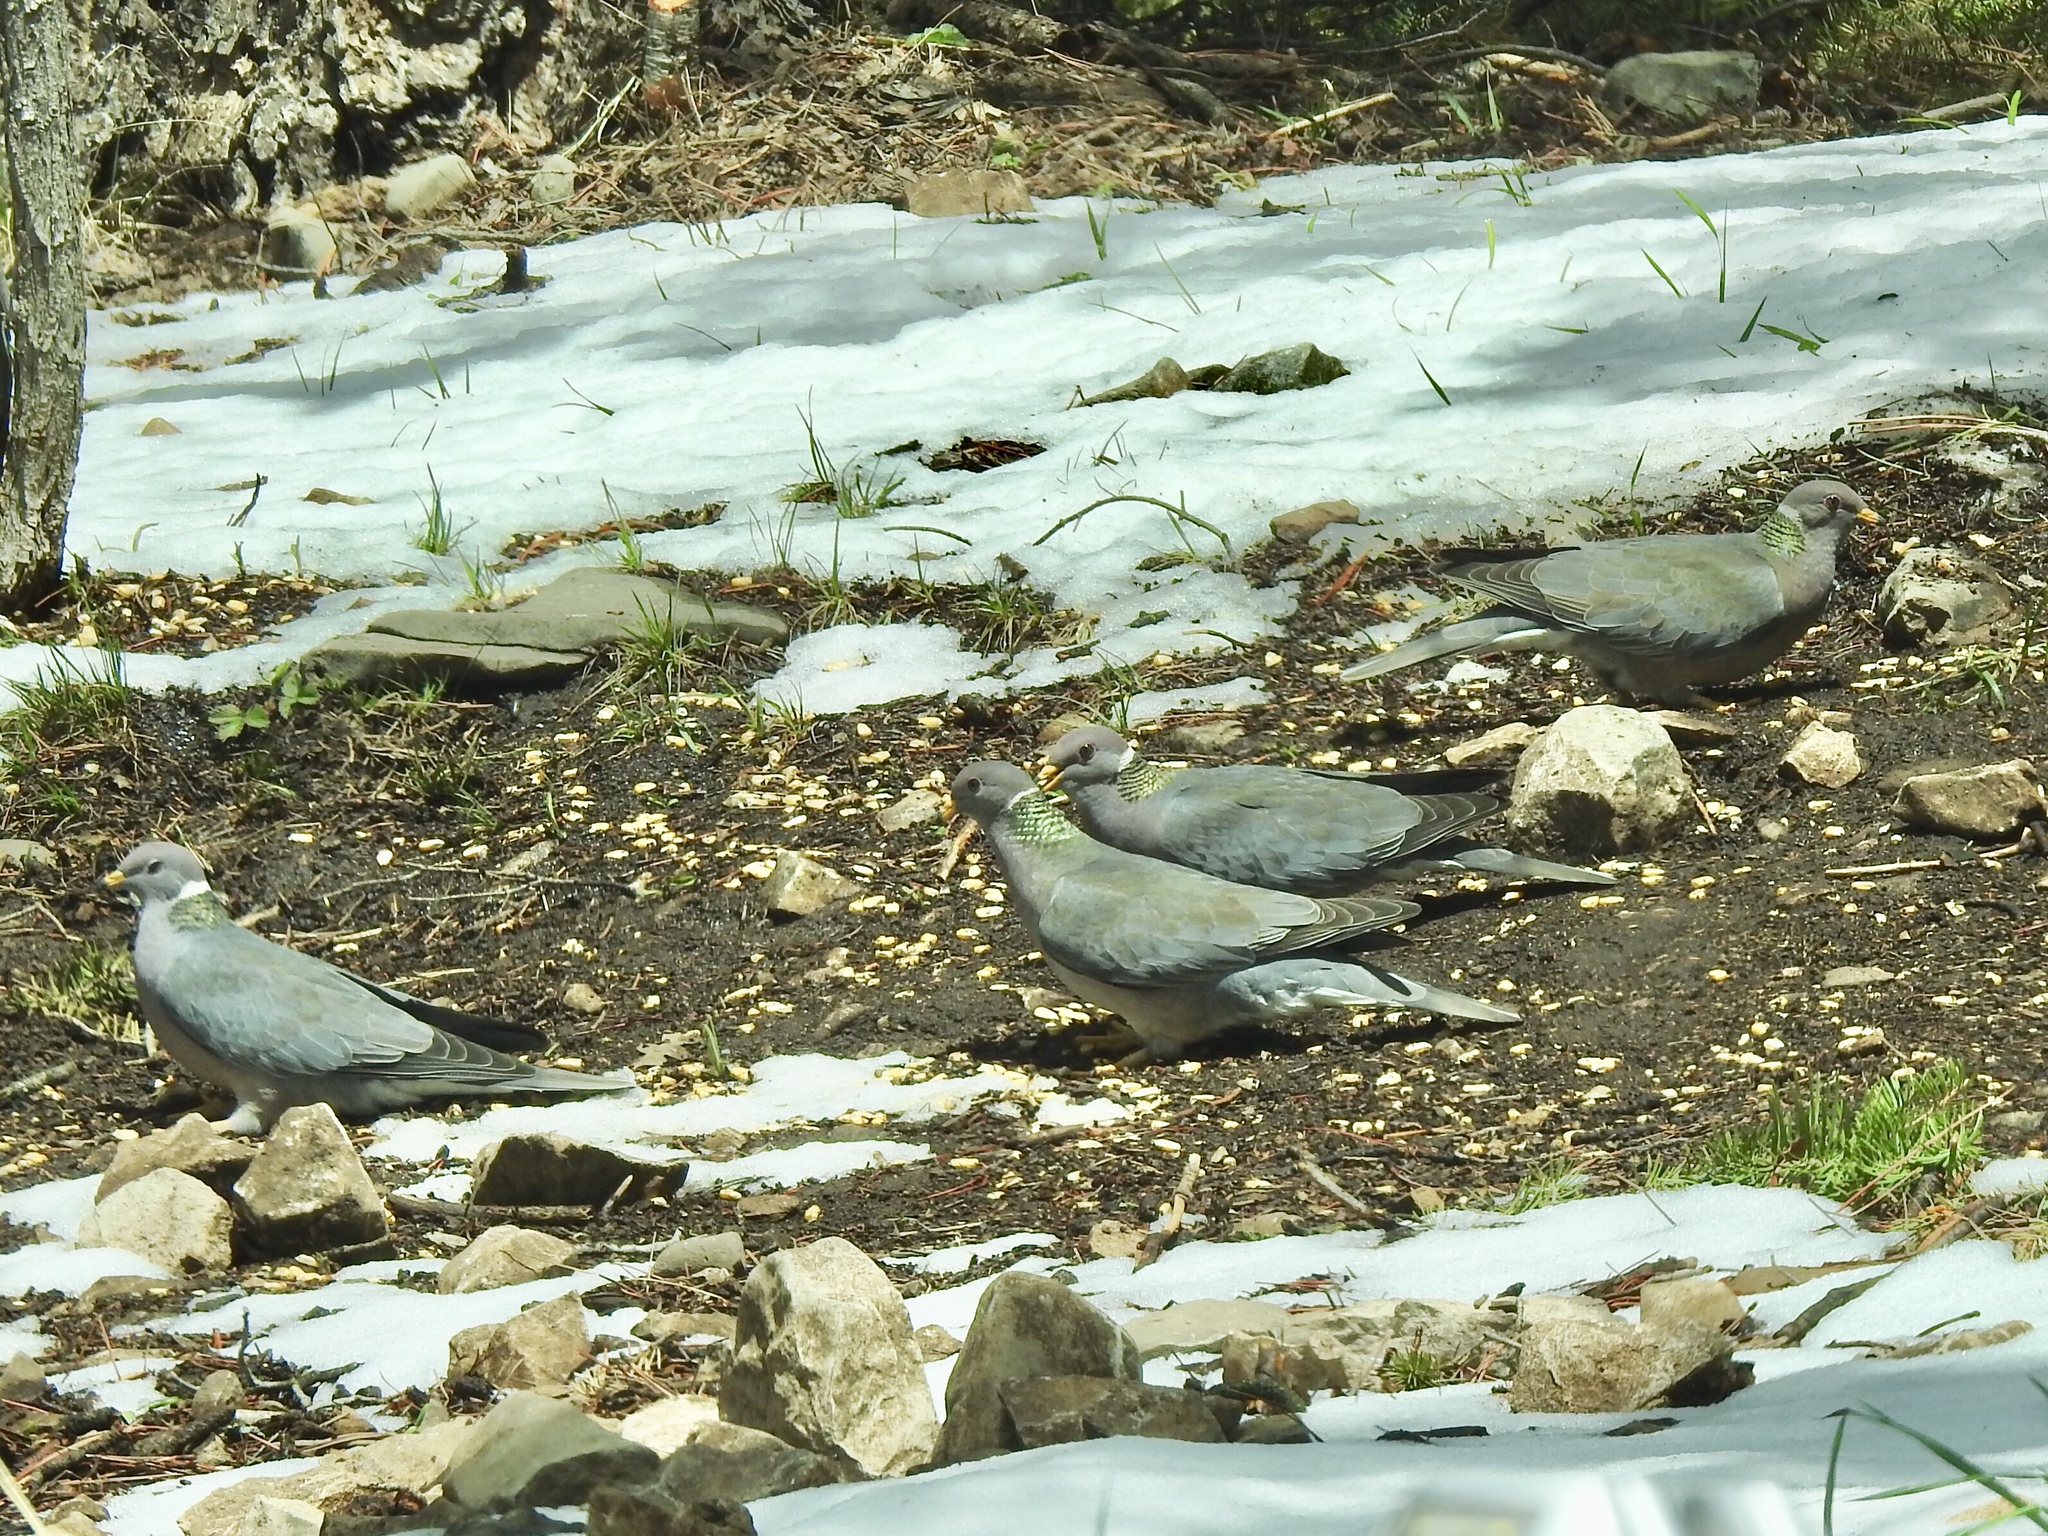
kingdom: Animalia
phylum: Chordata
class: Aves
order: Columbiformes
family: Columbidae
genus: Patagioenas
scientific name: Patagioenas fasciata
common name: Band-tailed pigeon
